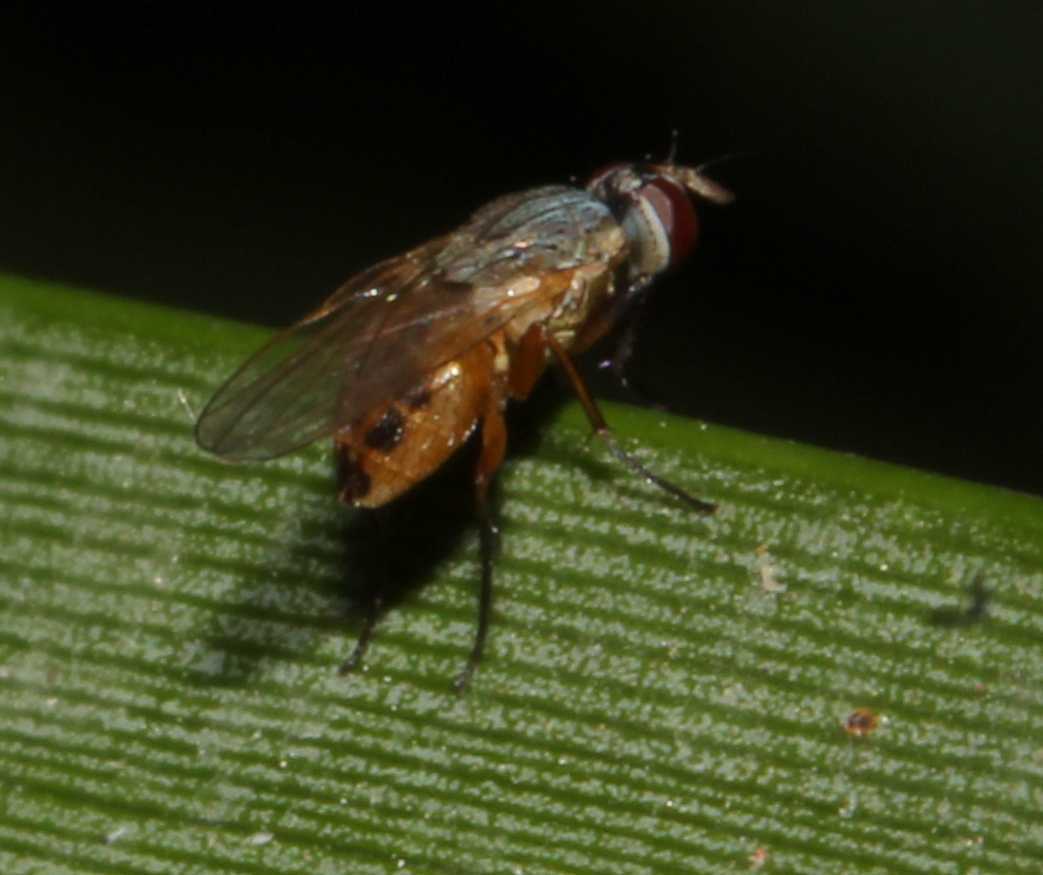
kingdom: Animalia
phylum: Arthropoda
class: Insecta
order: Diptera
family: Muscidae
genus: Atherigona
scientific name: Atherigona
